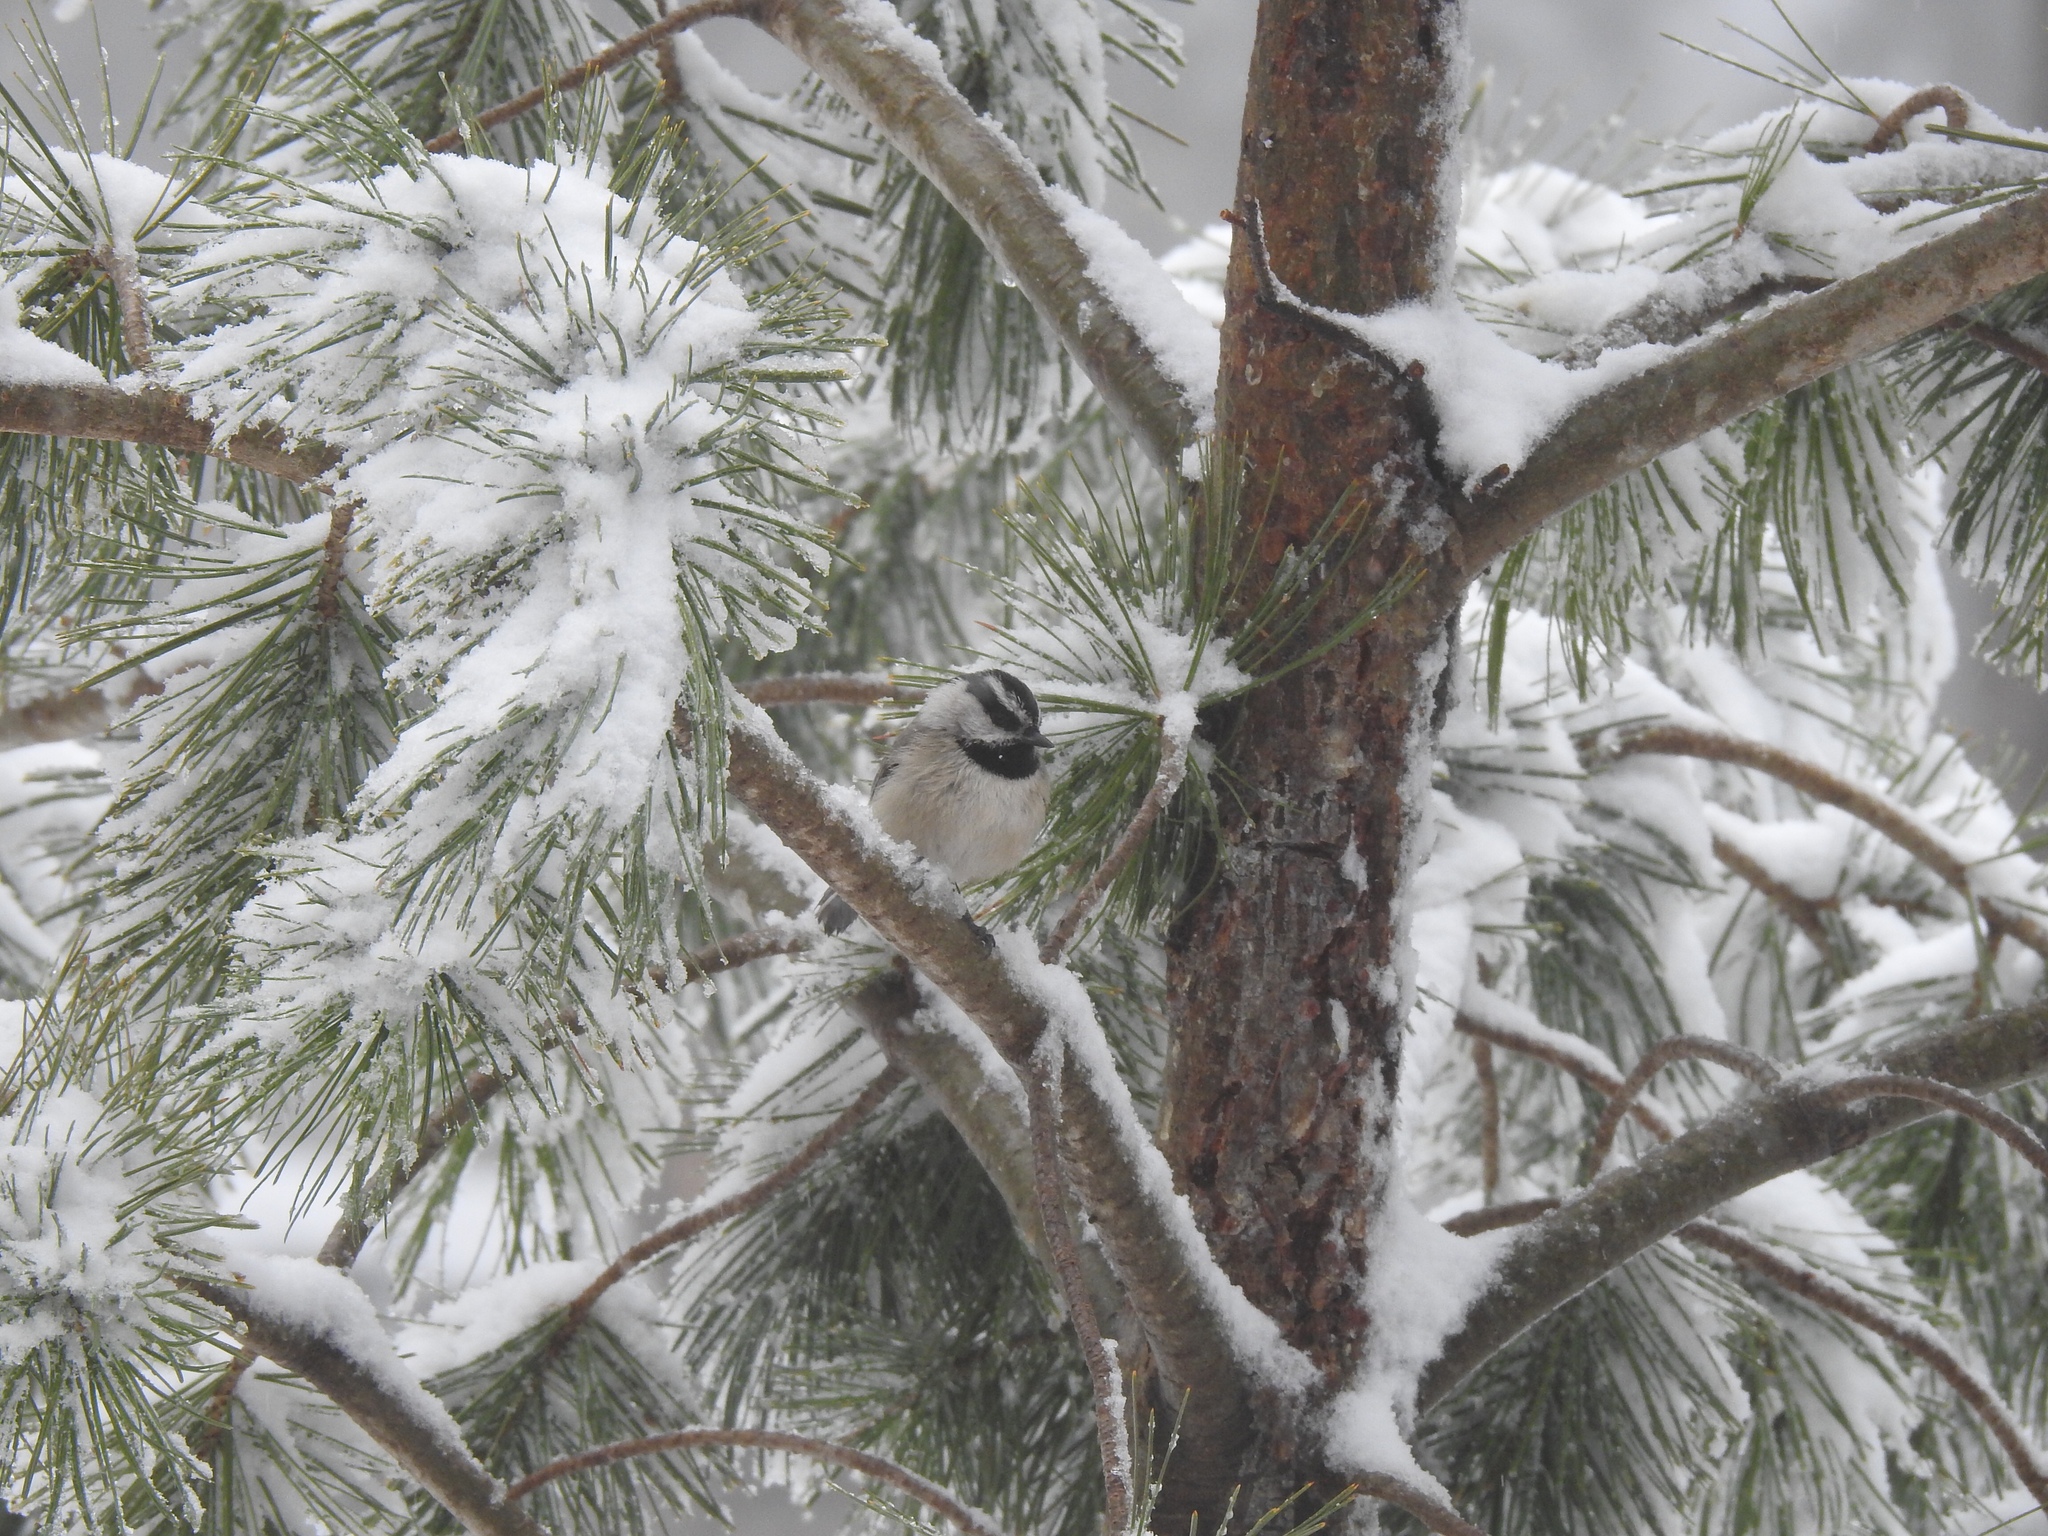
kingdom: Animalia
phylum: Chordata
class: Aves
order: Passeriformes
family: Paridae
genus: Poecile
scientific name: Poecile gambeli
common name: Mountain chickadee
